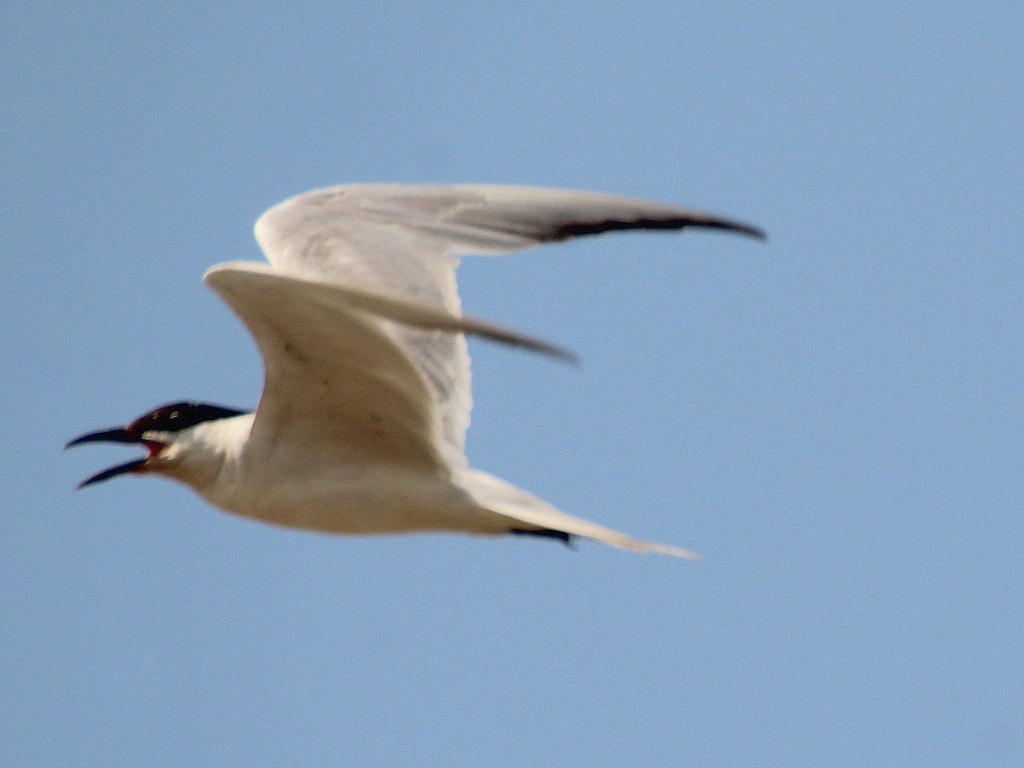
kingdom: Animalia
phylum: Chordata
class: Aves
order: Charadriiformes
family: Laridae
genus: Gelochelidon
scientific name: Gelochelidon nilotica
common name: Gull-billed tern
